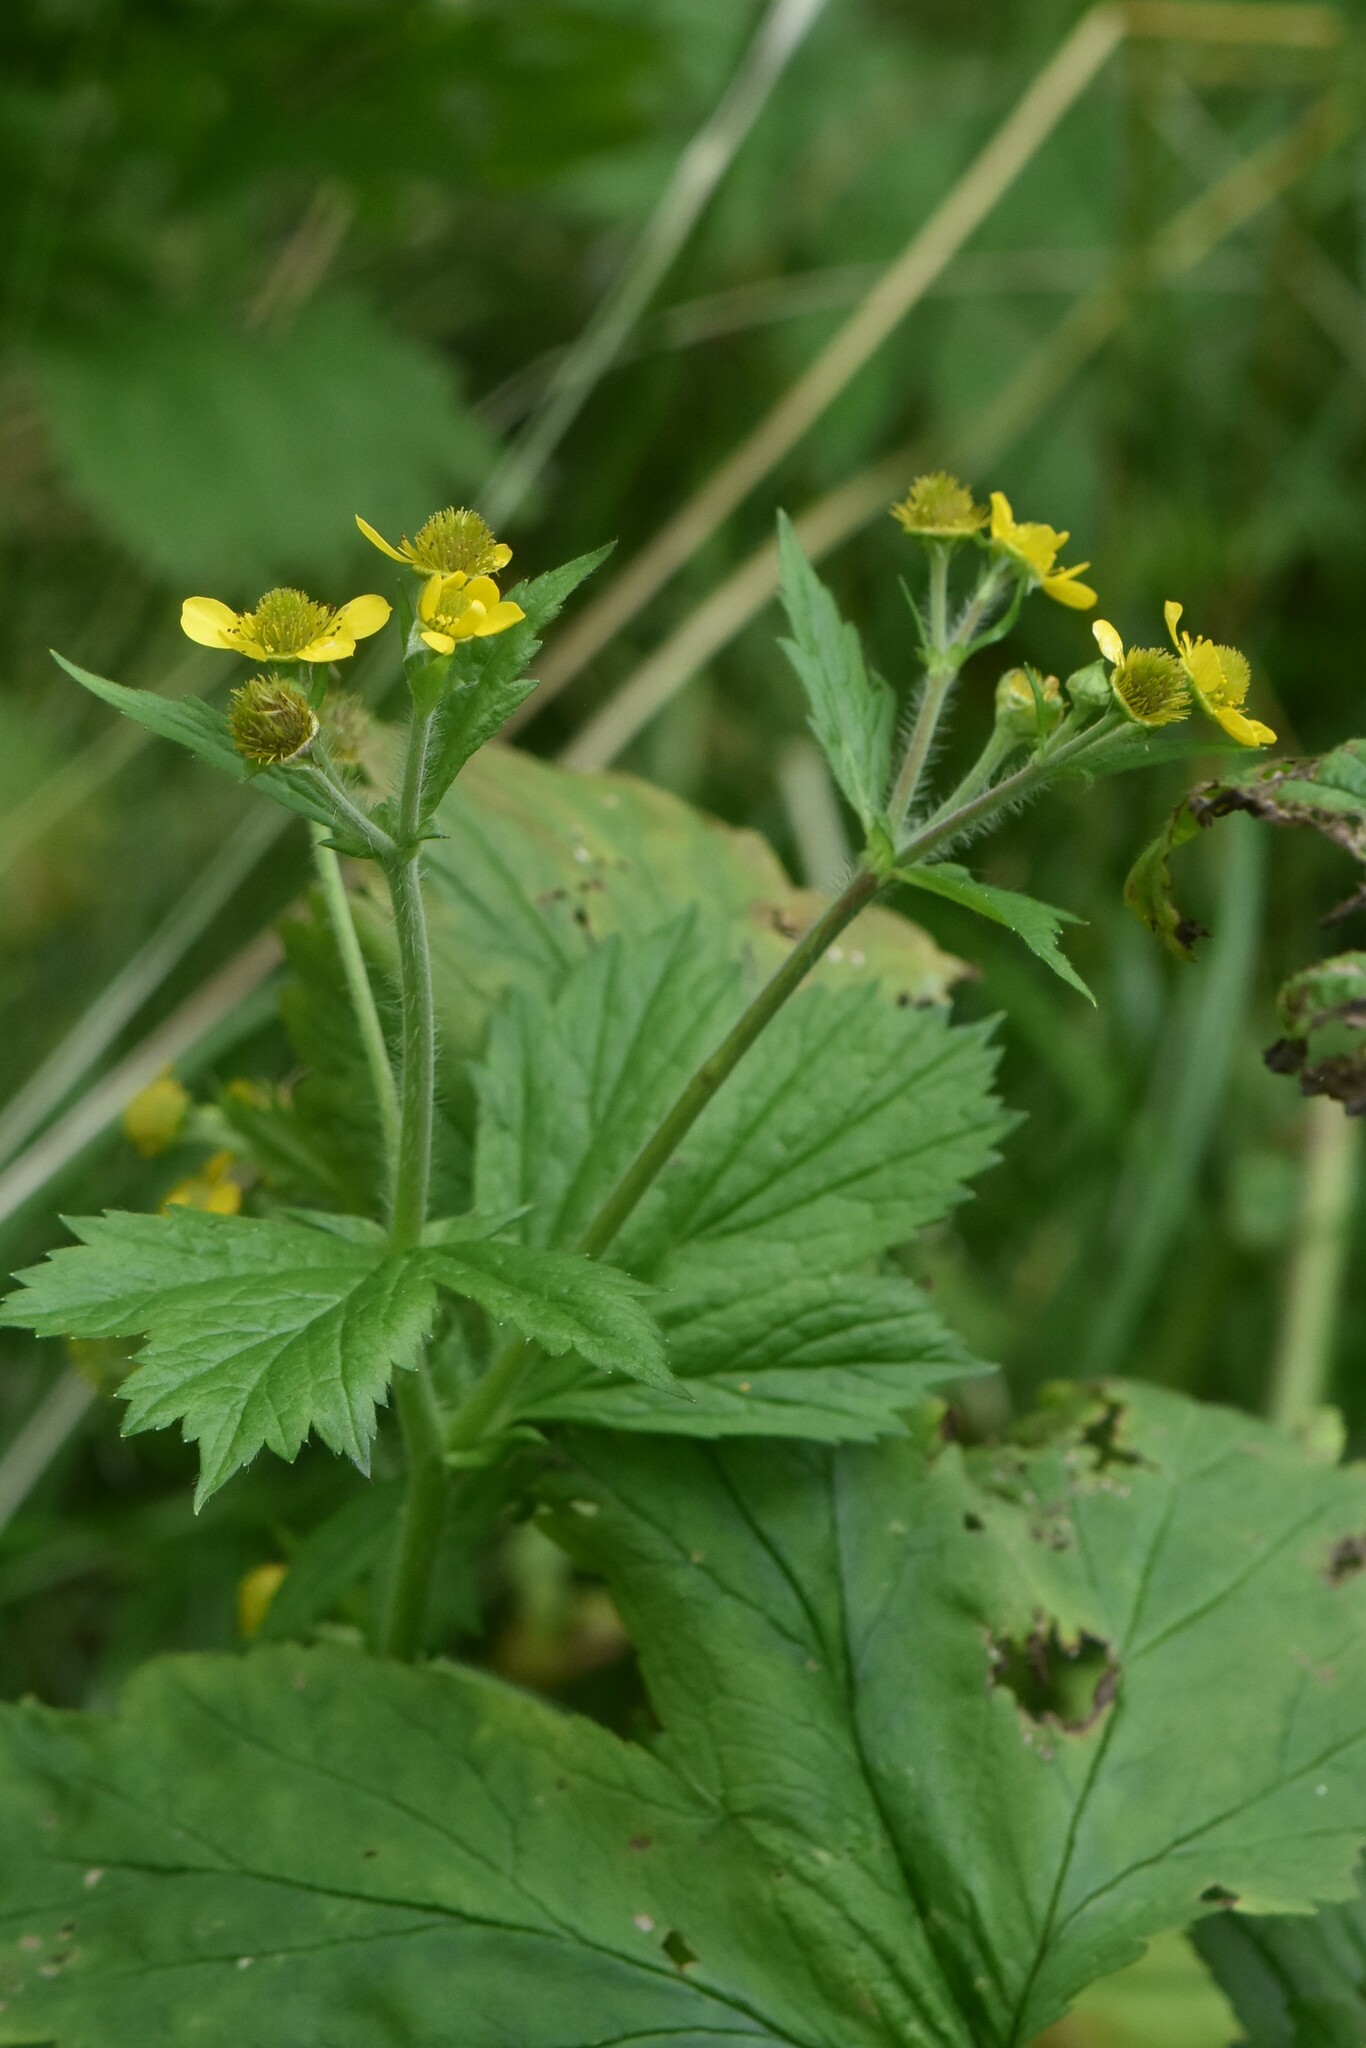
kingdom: Plantae
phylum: Tracheophyta
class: Magnoliopsida
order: Rosales
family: Rosaceae
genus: Geum
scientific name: Geum macrophyllum
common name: Large-leaved avens
